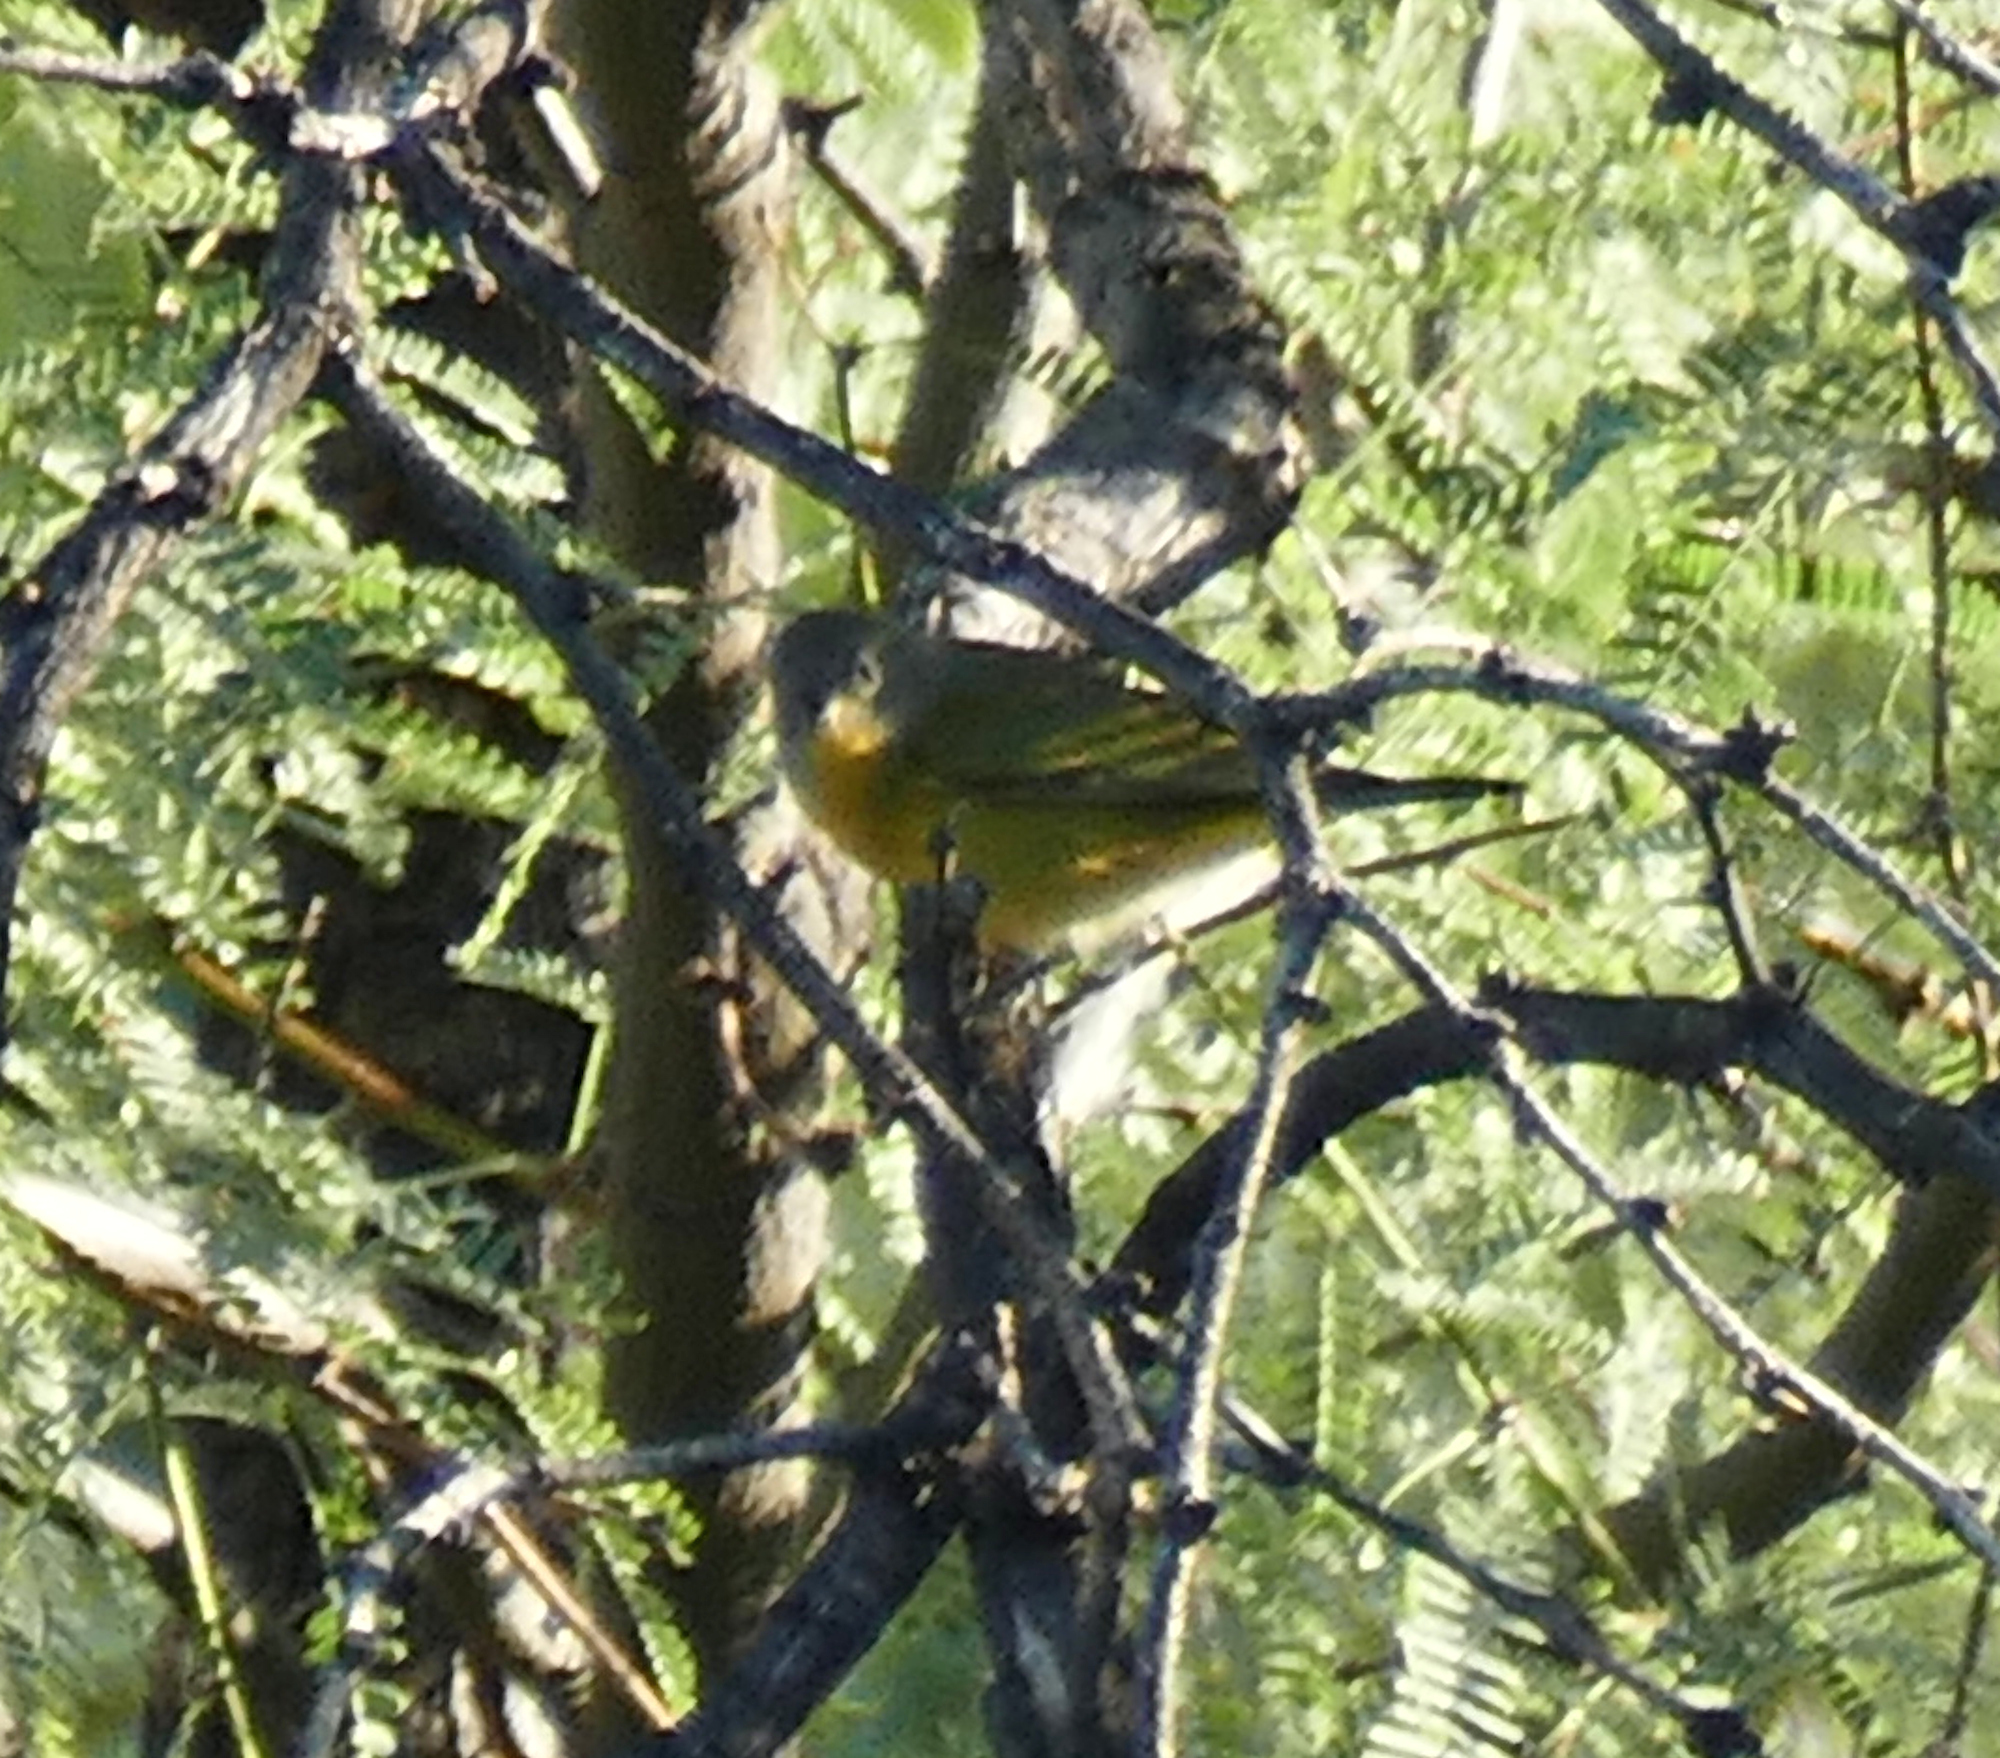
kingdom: Animalia
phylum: Chordata
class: Aves
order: Passeriformes
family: Parulidae
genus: Leiothlypis
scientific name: Leiothlypis ruficapilla
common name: Nashville warbler
